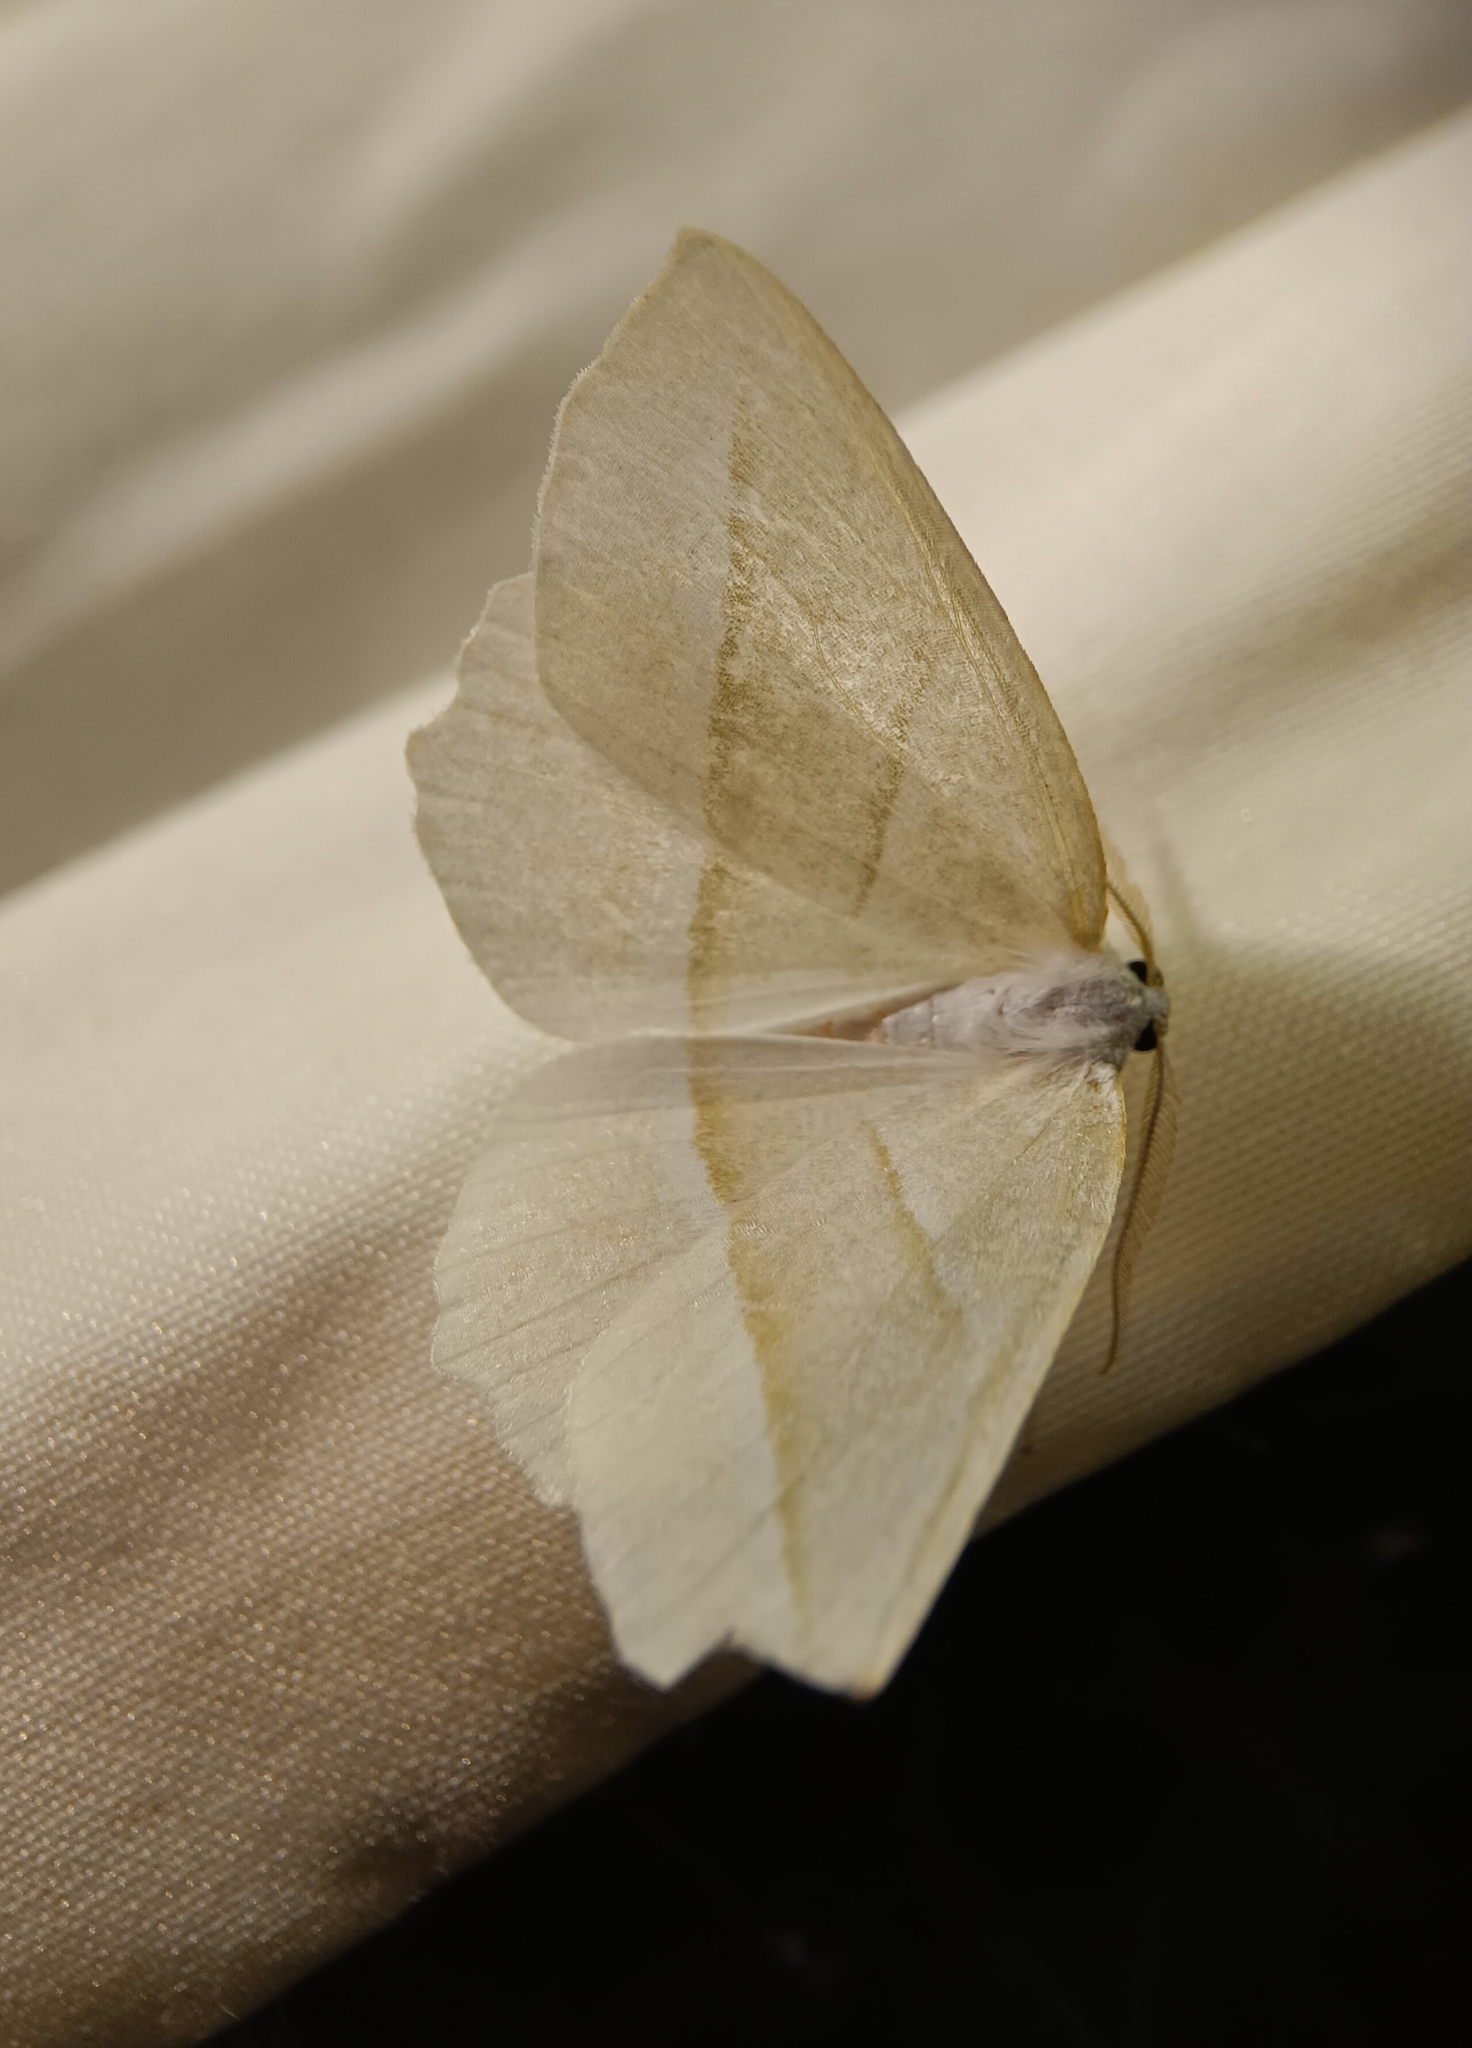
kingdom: Animalia
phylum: Arthropoda
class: Insecta
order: Lepidoptera
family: Geometridae
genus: Campaea
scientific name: Campaea perlata
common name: Fringed looper
